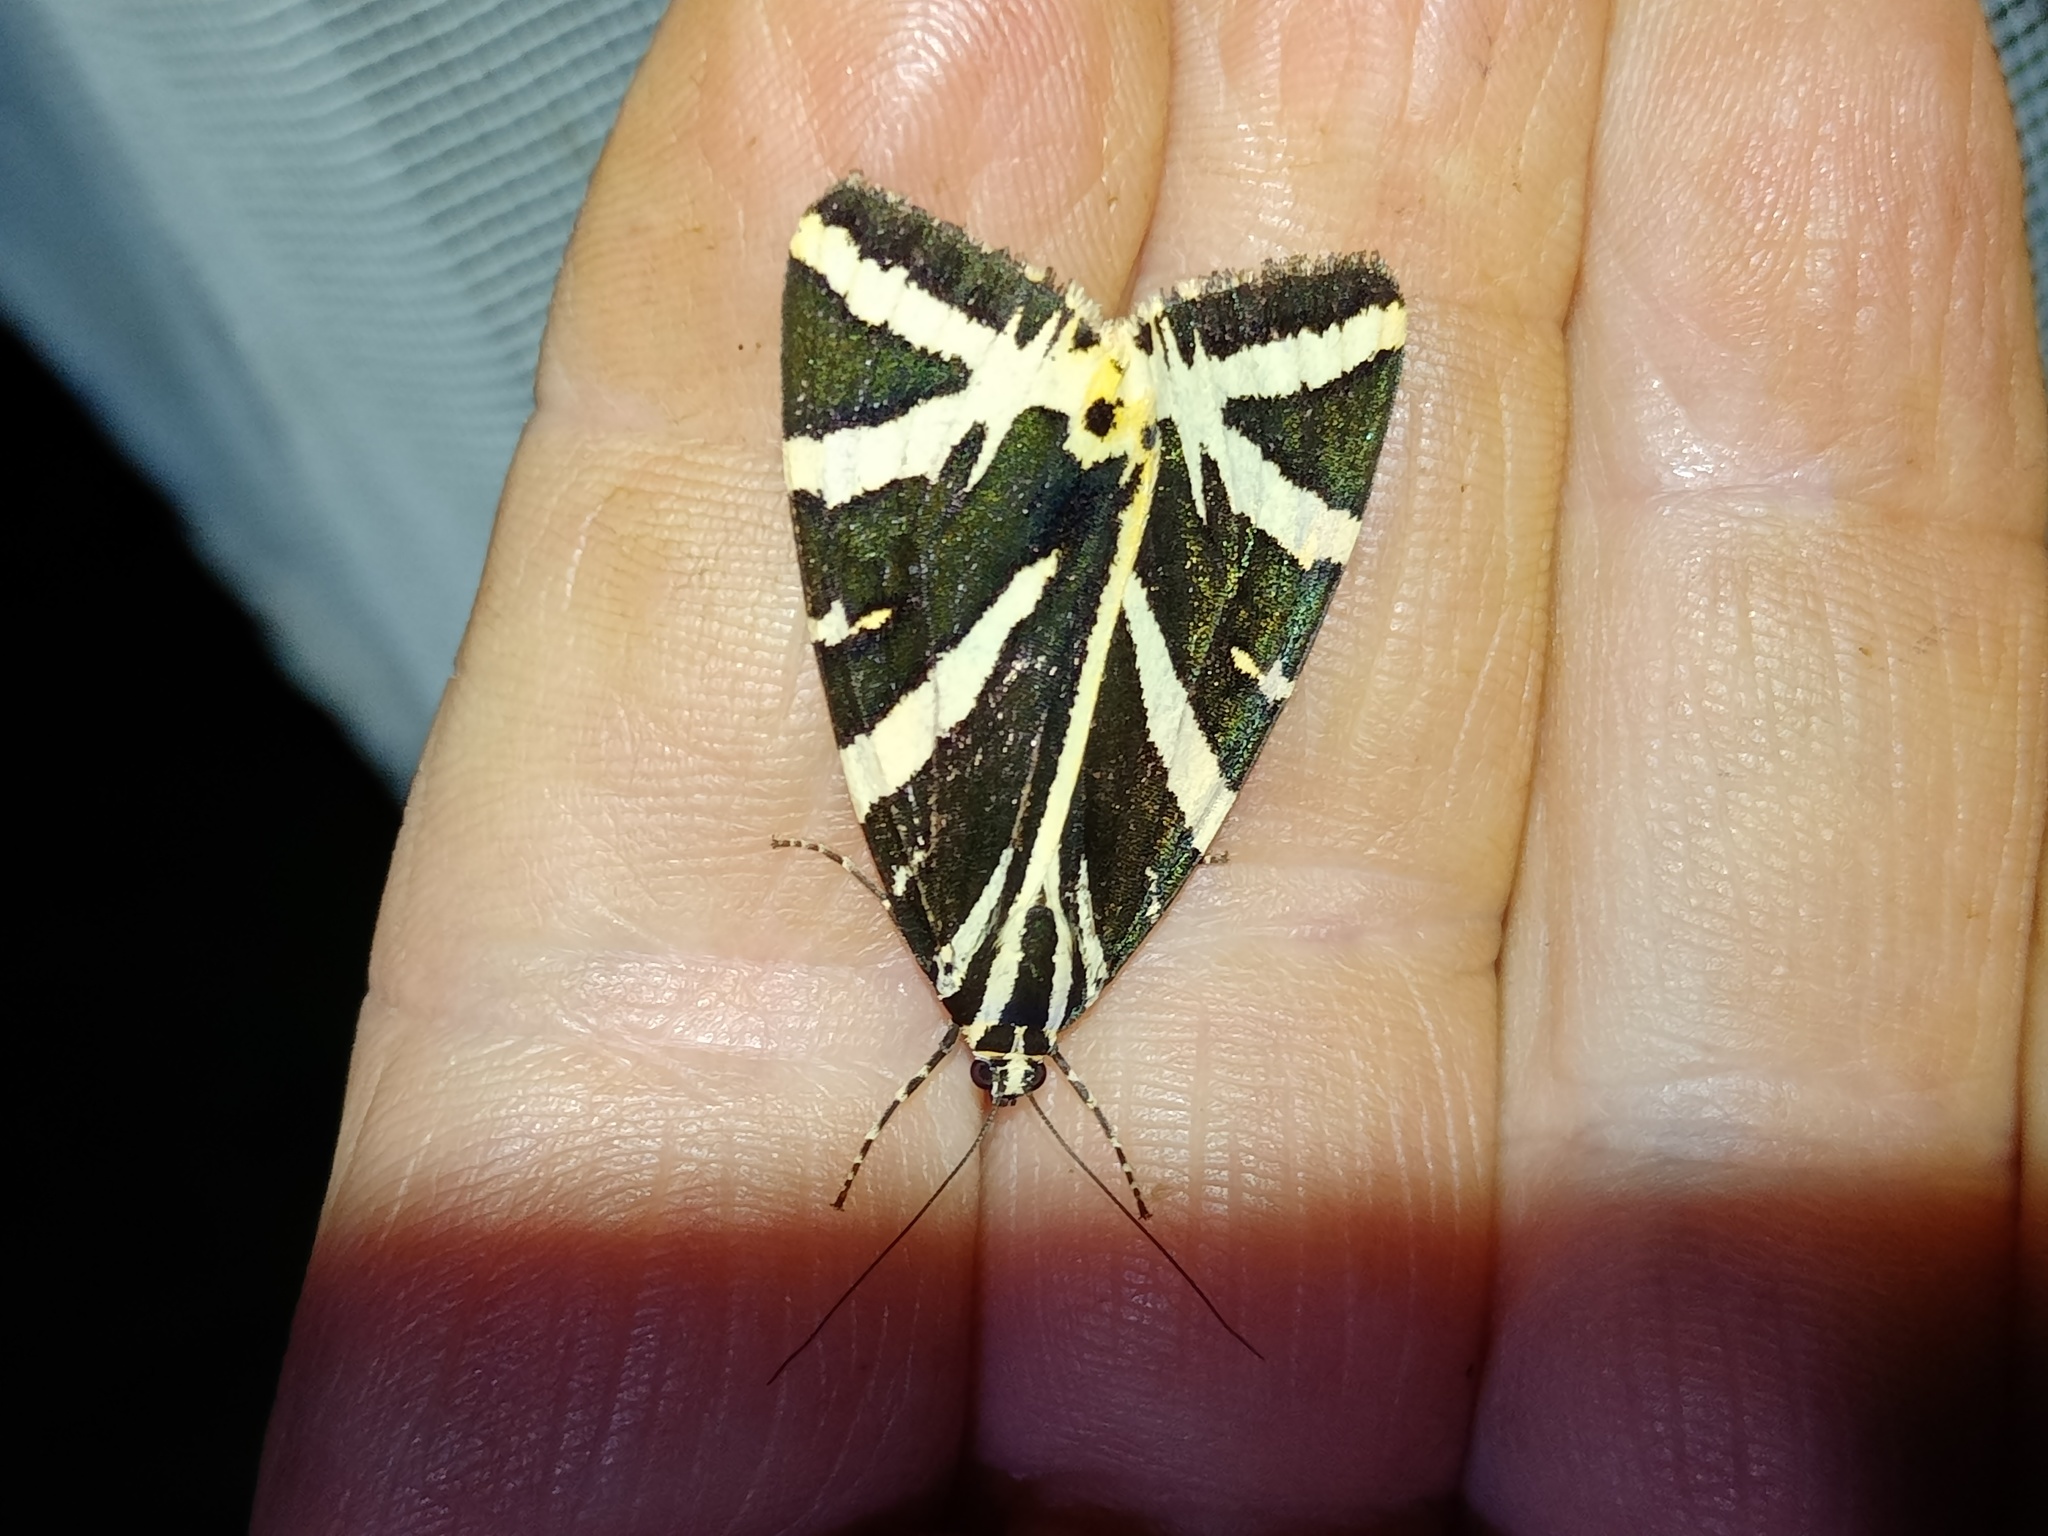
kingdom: Animalia
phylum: Arthropoda
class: Insecta
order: Lepidoptera
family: Erebidae
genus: Euplagia
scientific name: Euplagia quadripunctaria
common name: Jersey tiger
